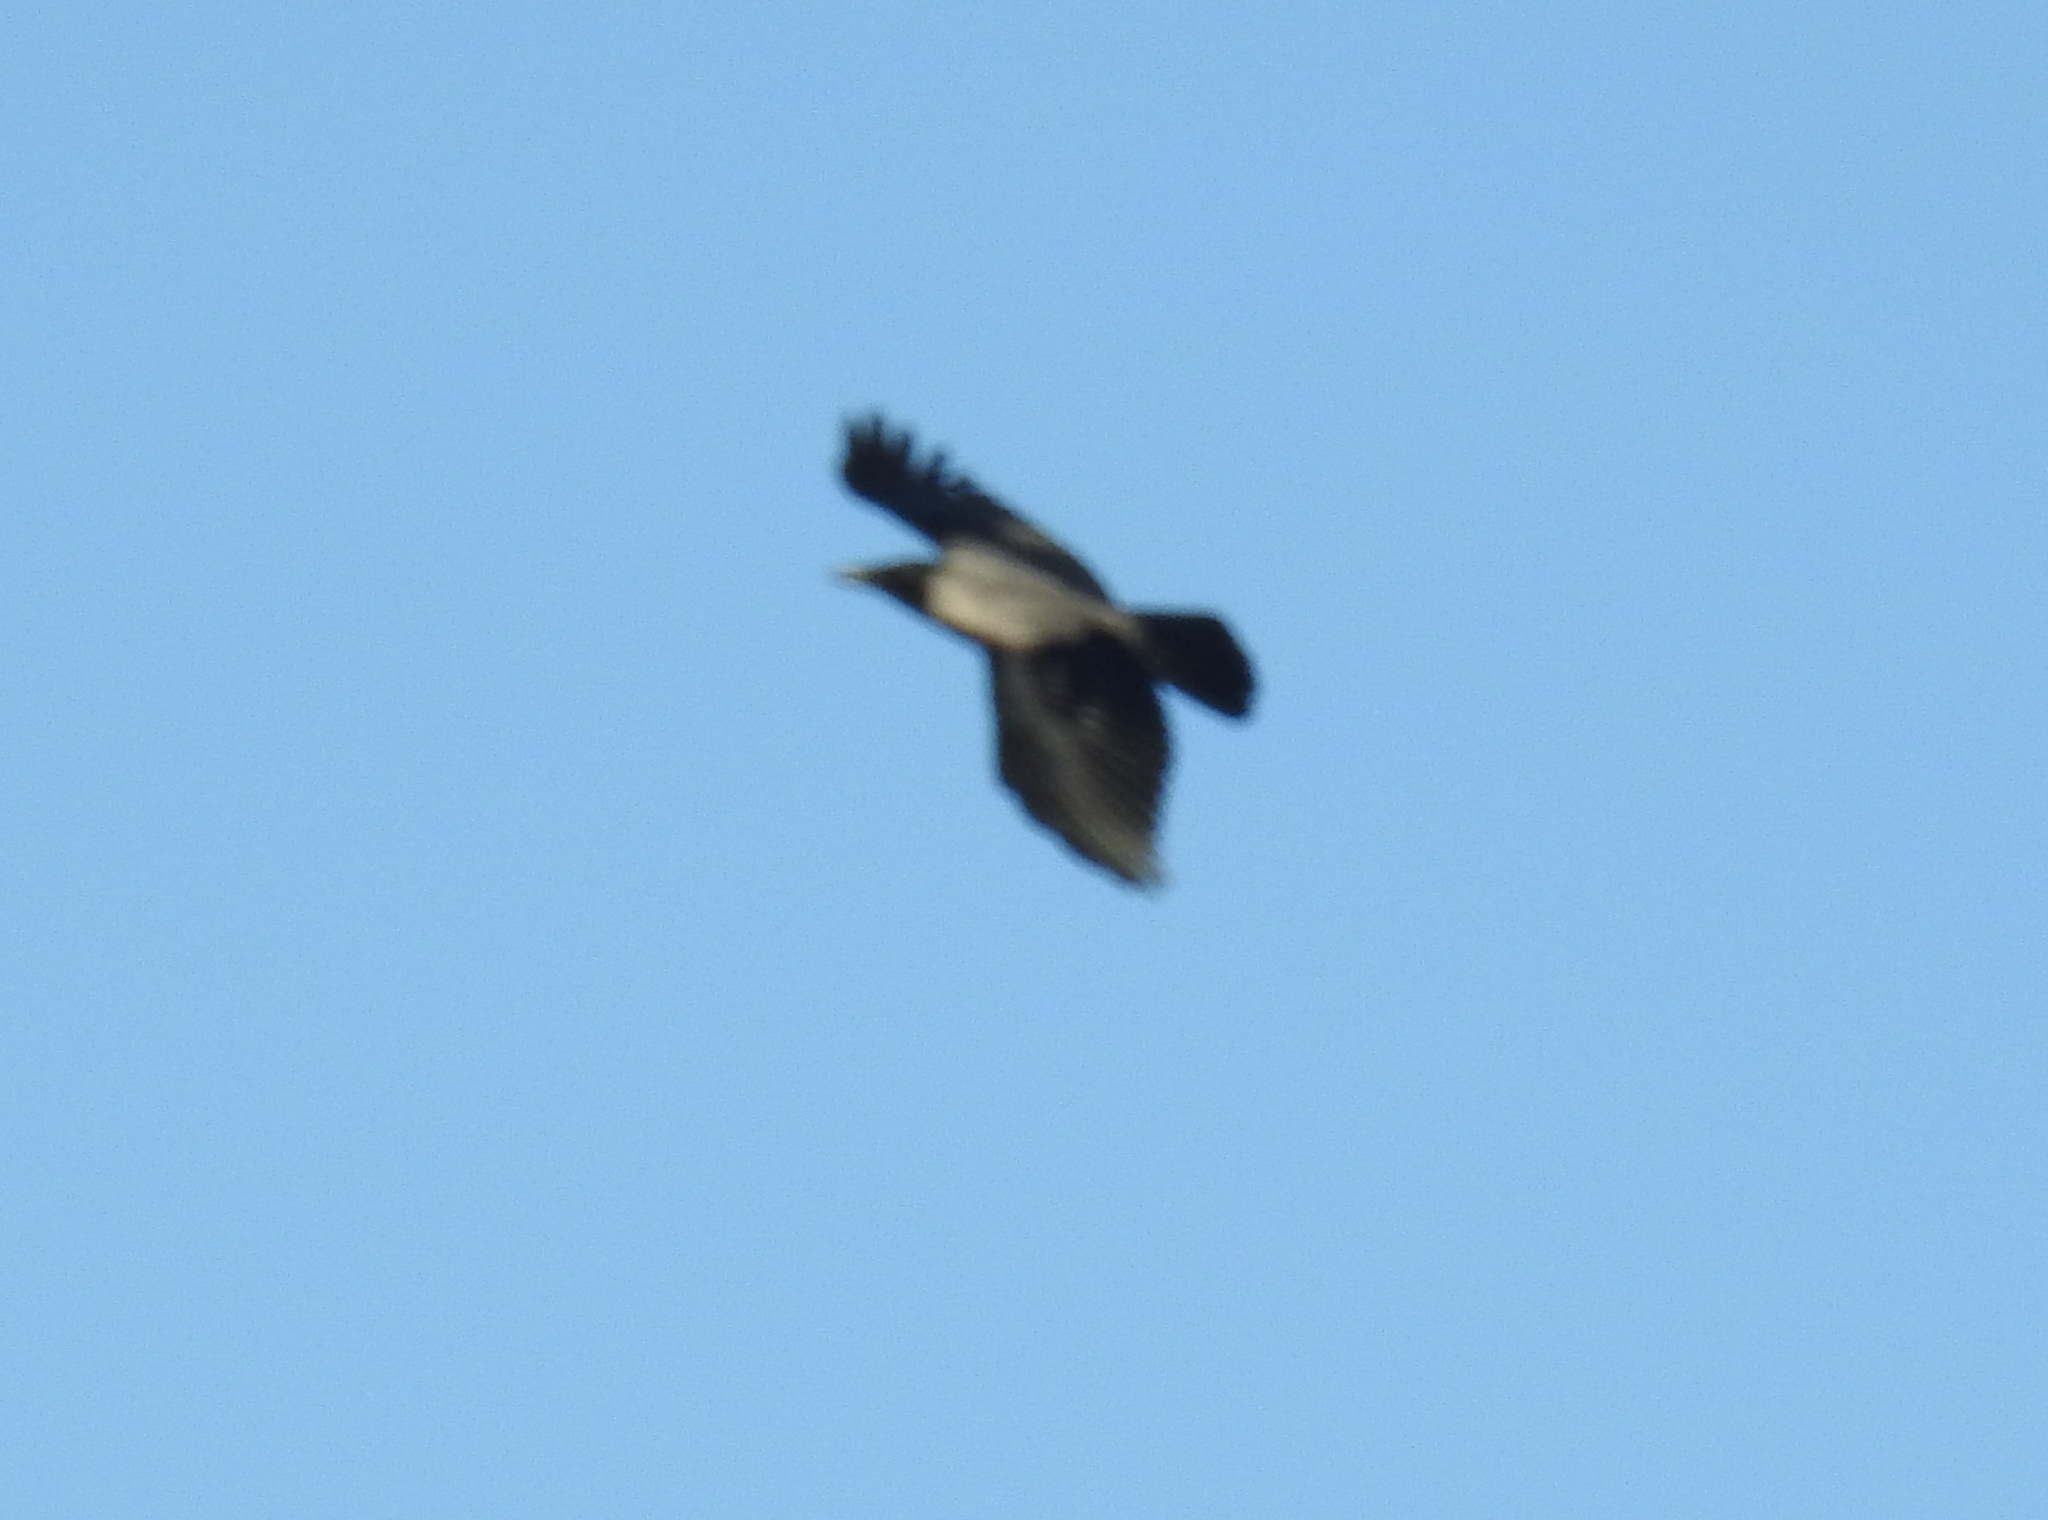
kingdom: Animalia
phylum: Chordata
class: Aves
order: Passeriformes
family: Corvidae
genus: Corvus
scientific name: Corvus cornix
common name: Hooded crow
